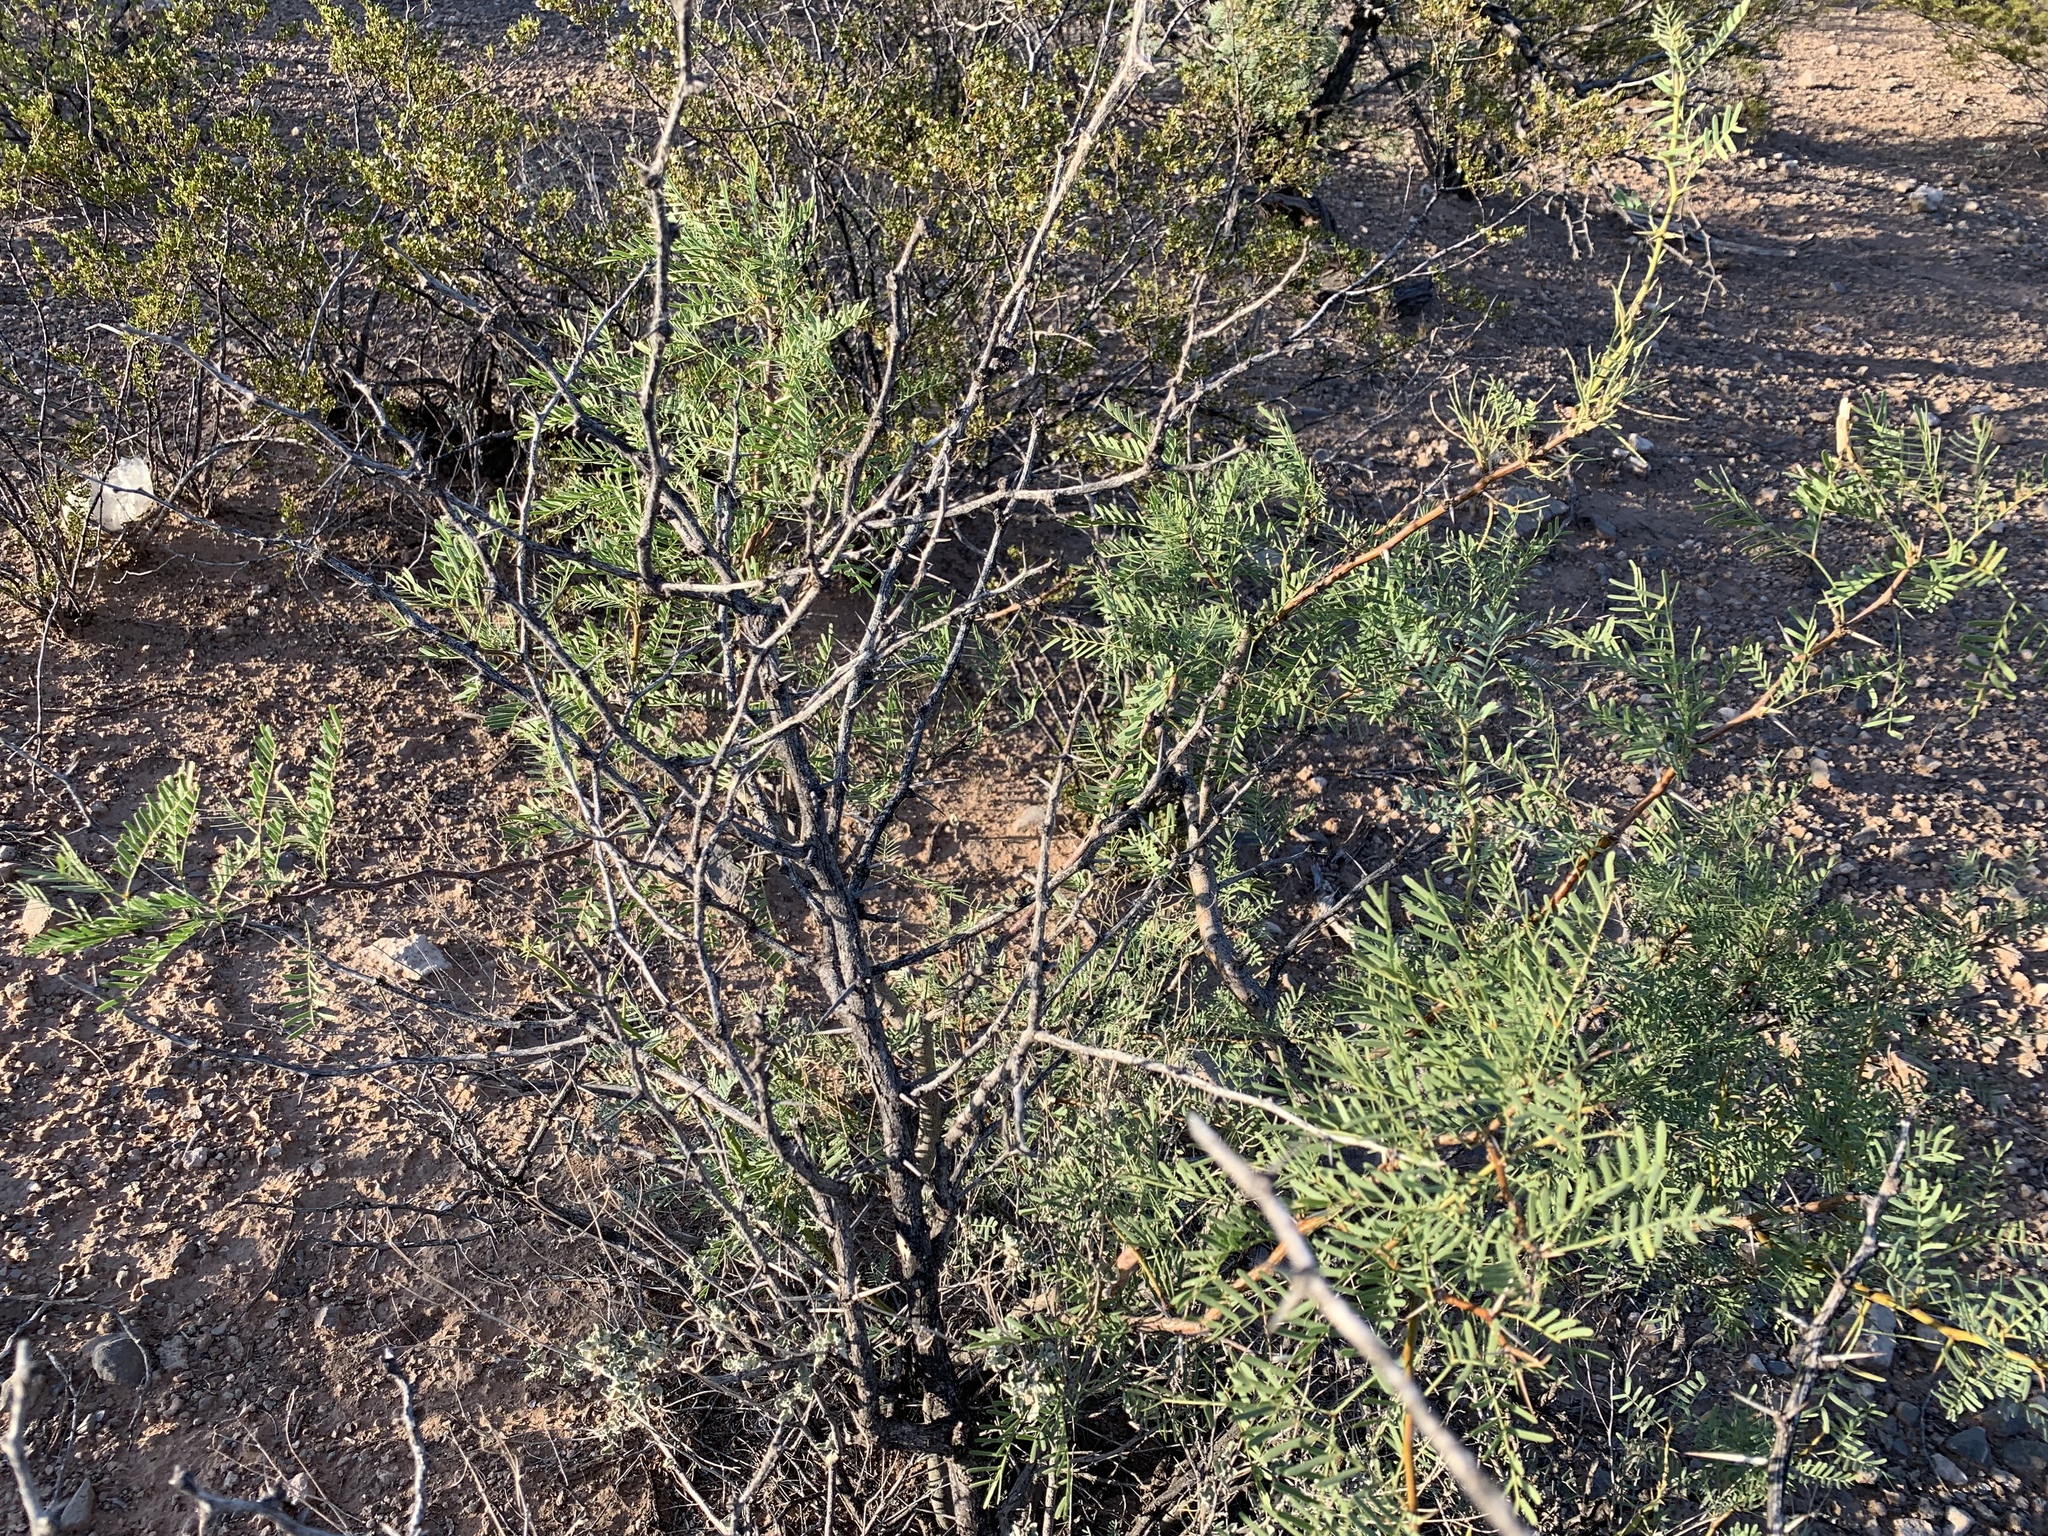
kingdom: Plantae
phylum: Tracheophyta
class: Magnoliopsida
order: Fabales
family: Fabaceae
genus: Prosopis
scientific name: Prosopis glandulosa
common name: Honey mesquite
